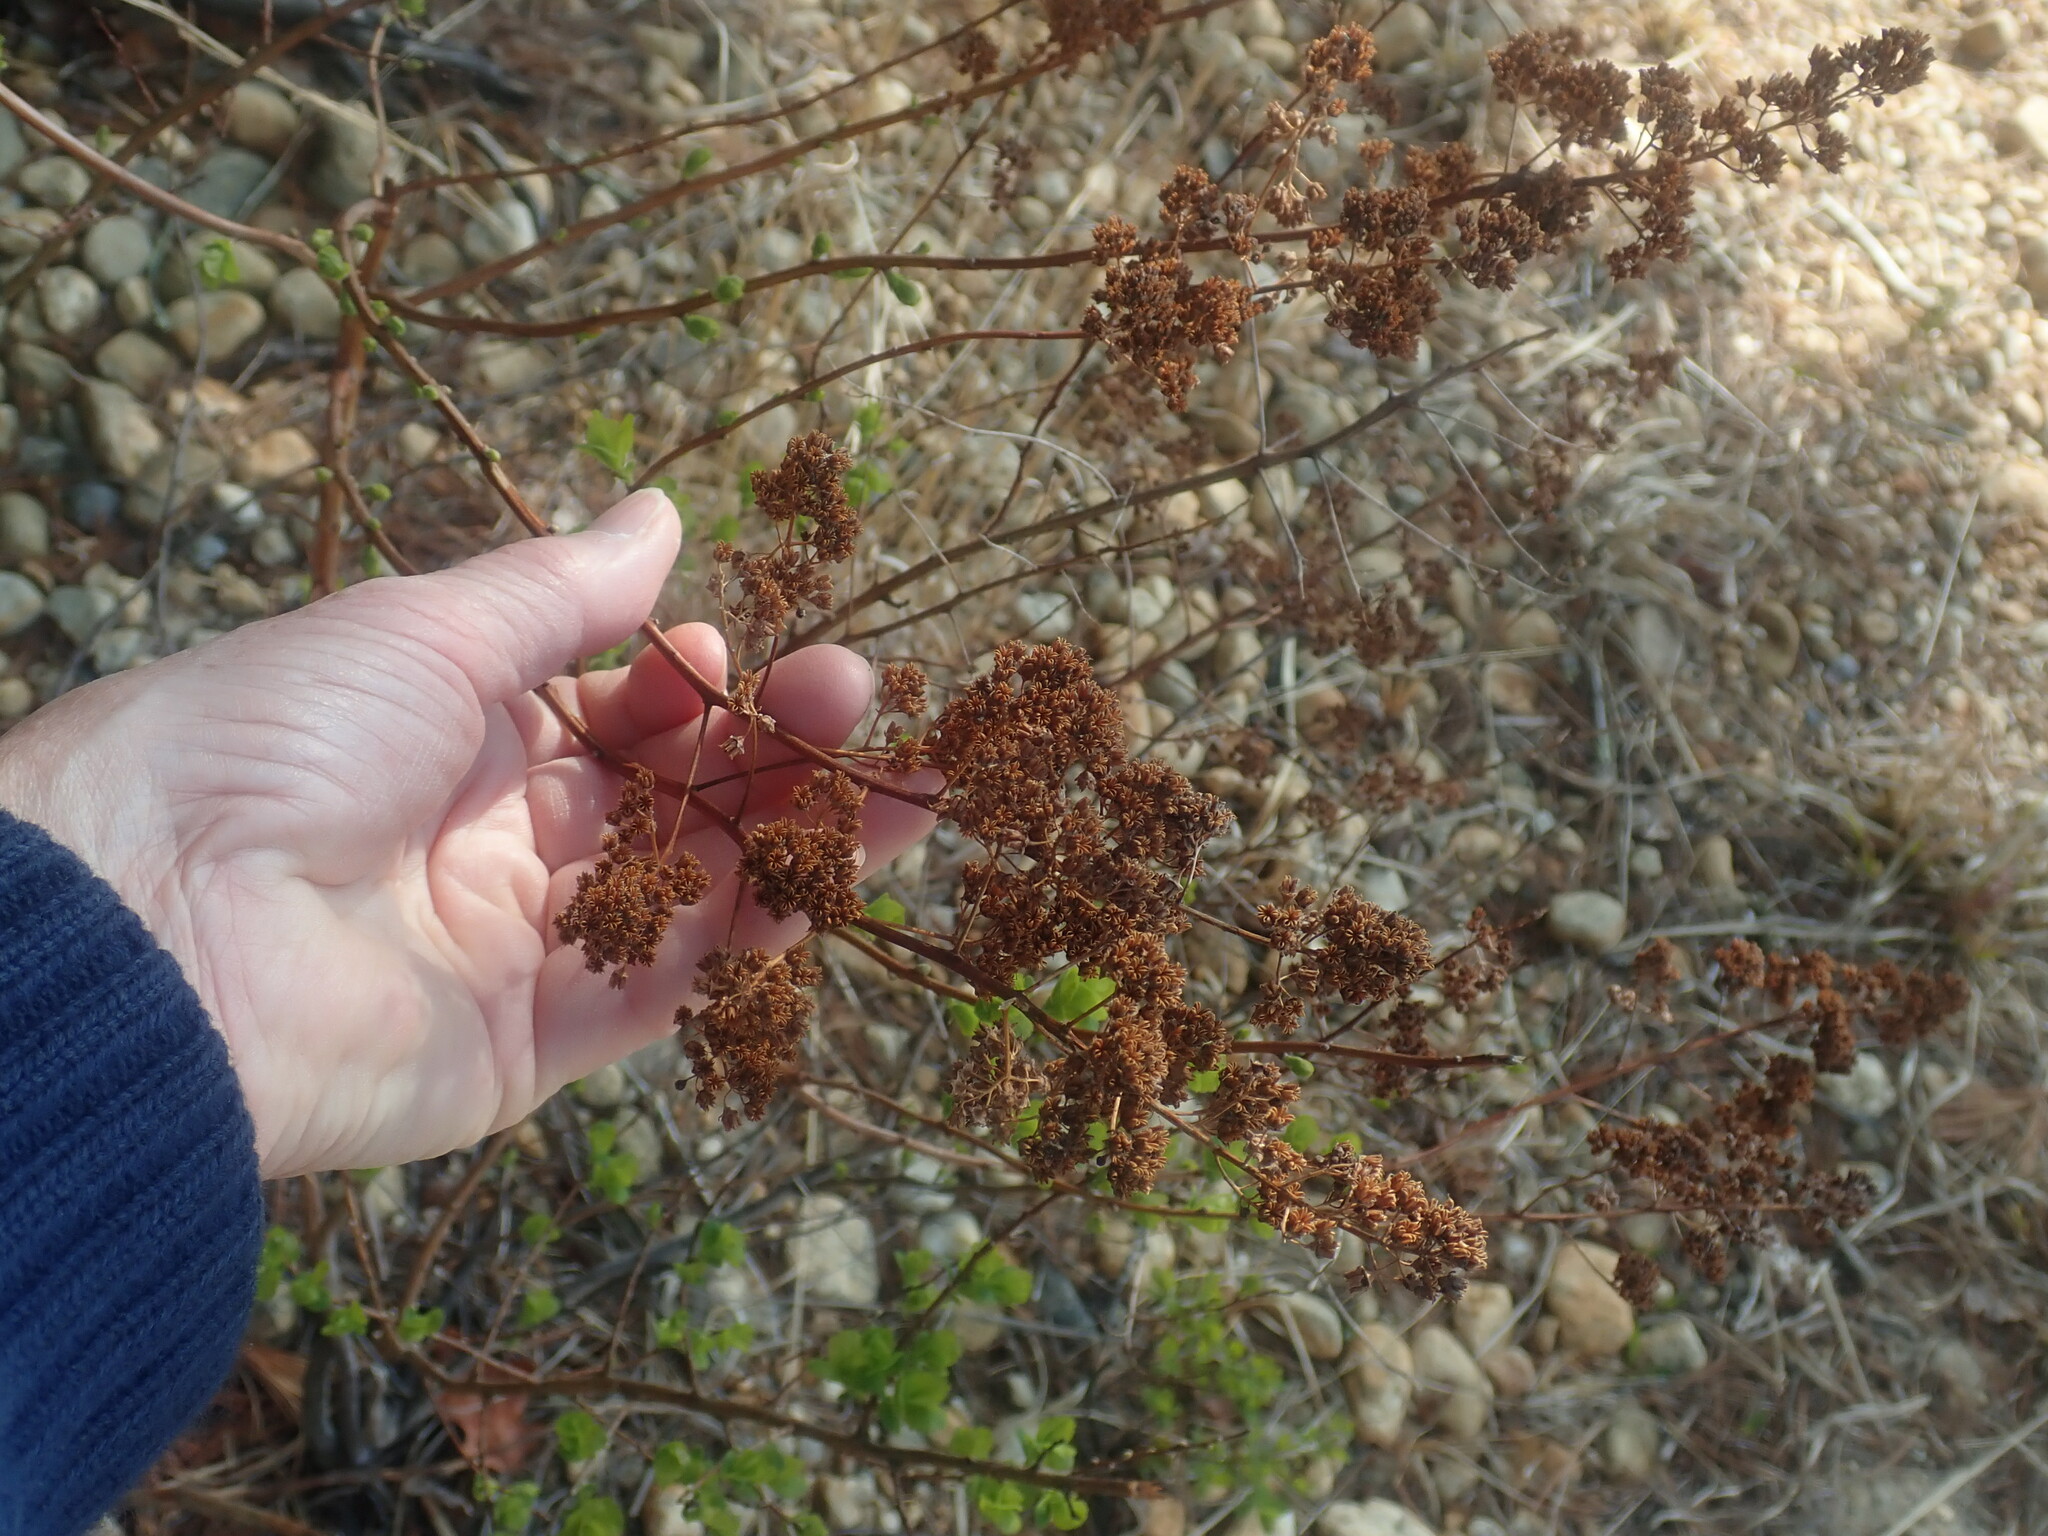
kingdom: Plantae
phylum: Tracheophyta
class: Magnoliopsida
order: Rosales
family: Rosaceae
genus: Spiraea
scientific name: Spiraea alba
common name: Pale bridewort
